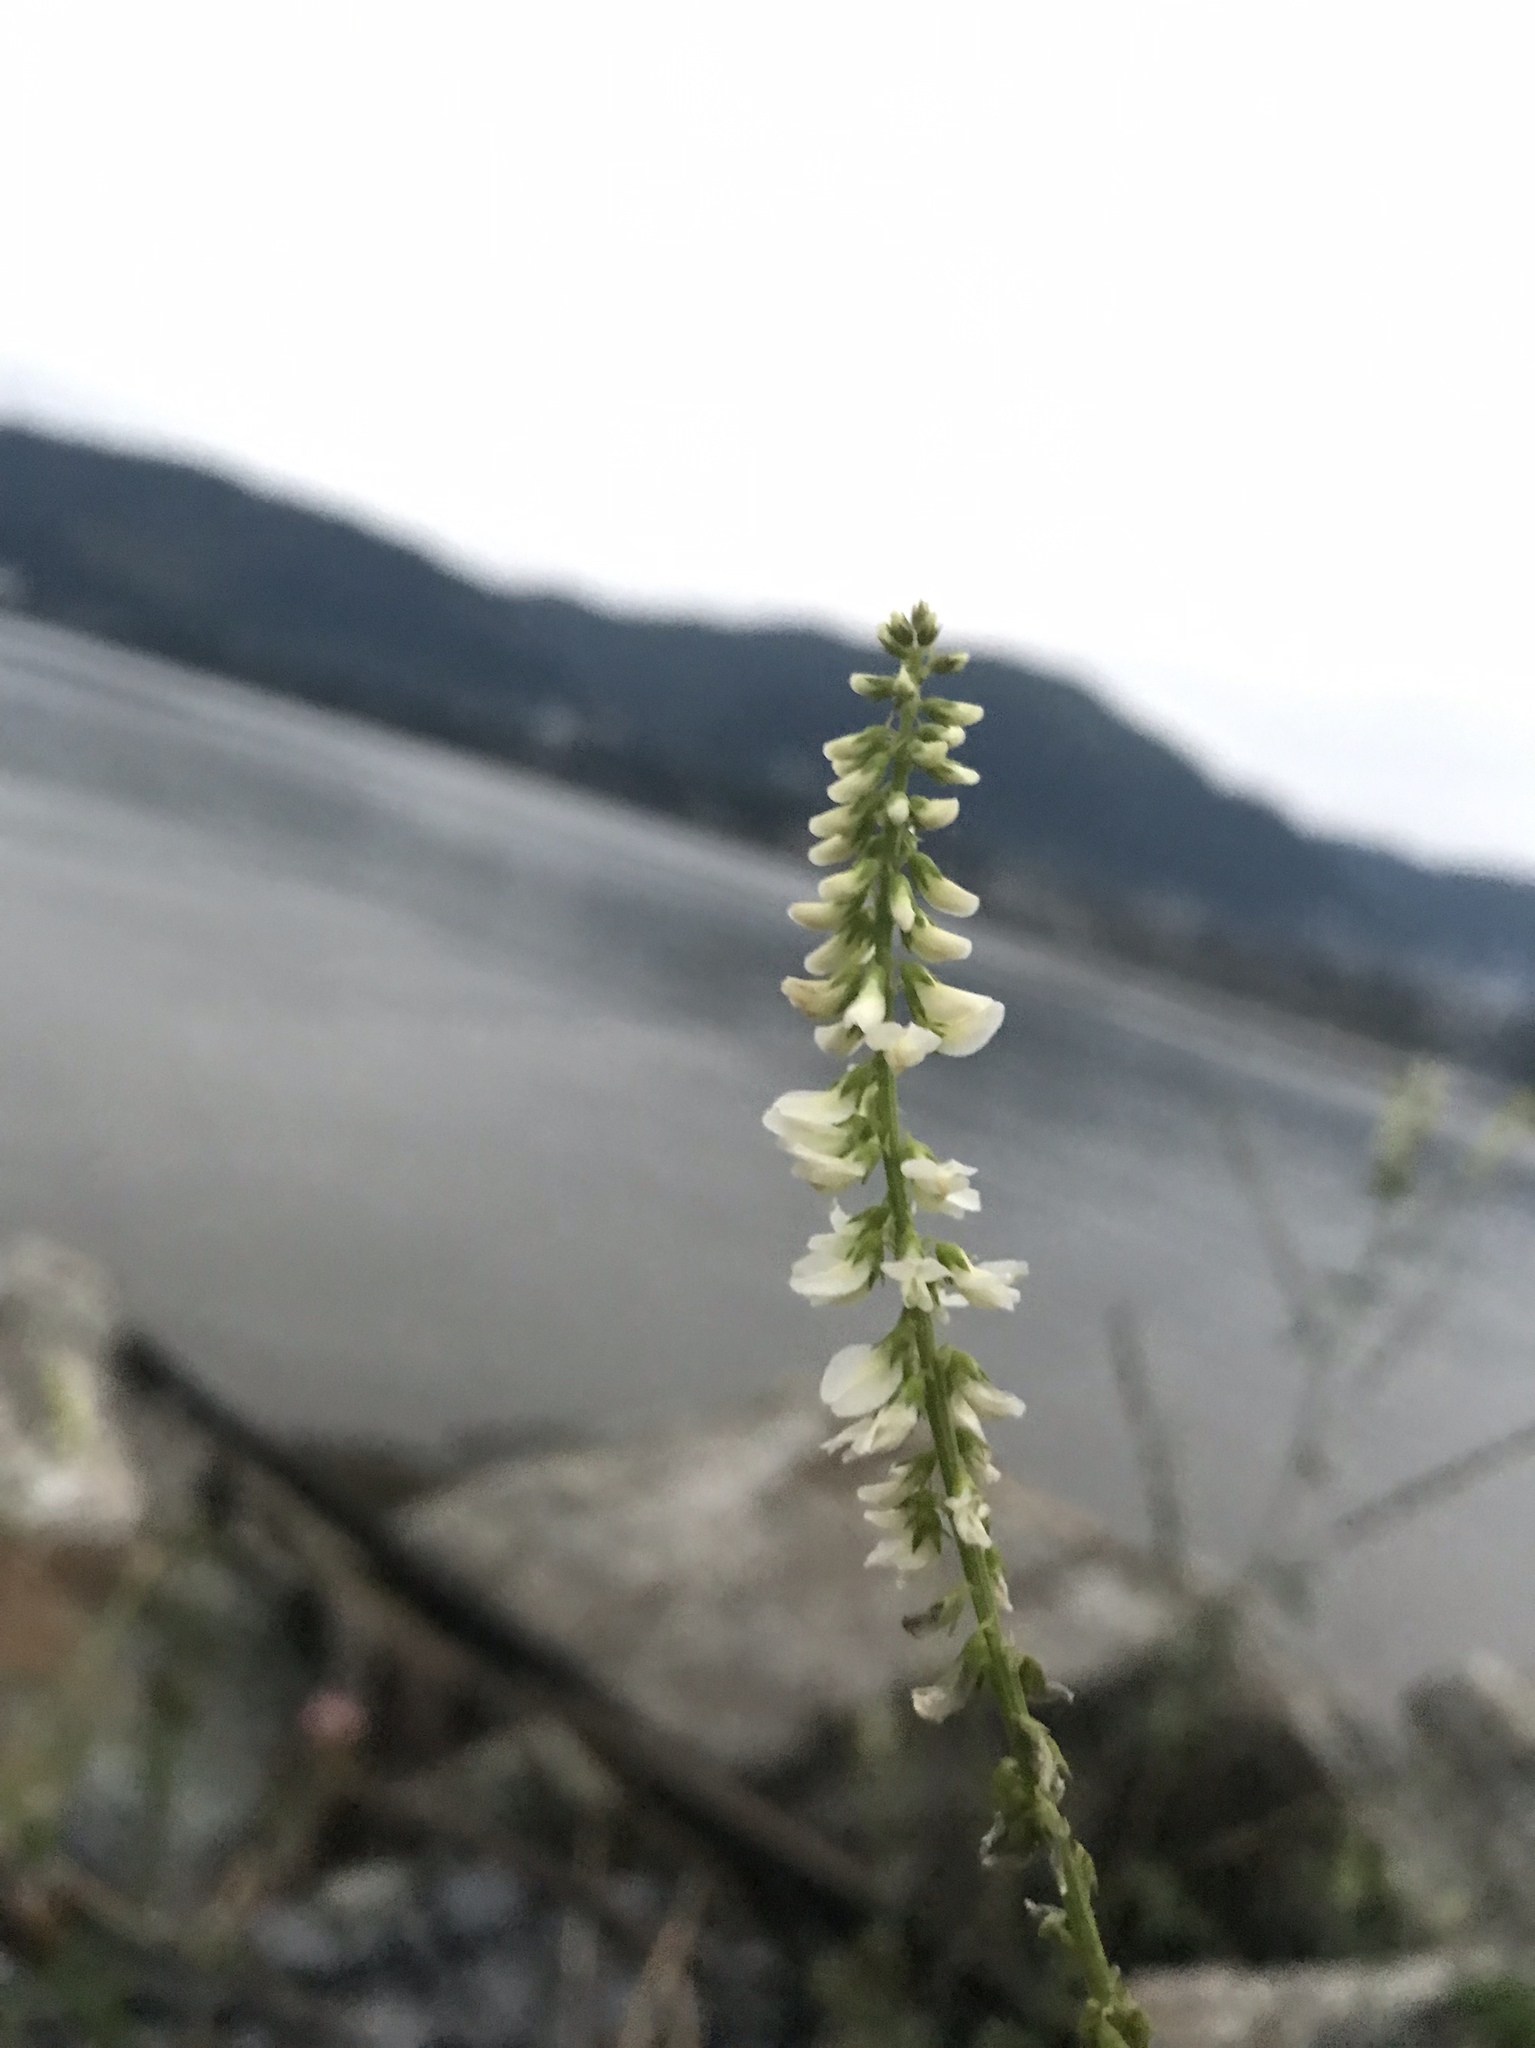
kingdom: Plantae
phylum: Tracheophyta
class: Magnoliopsida
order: Fabales
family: Fabaceae
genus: Melilotus
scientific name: Melilotus albus
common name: White melilot
